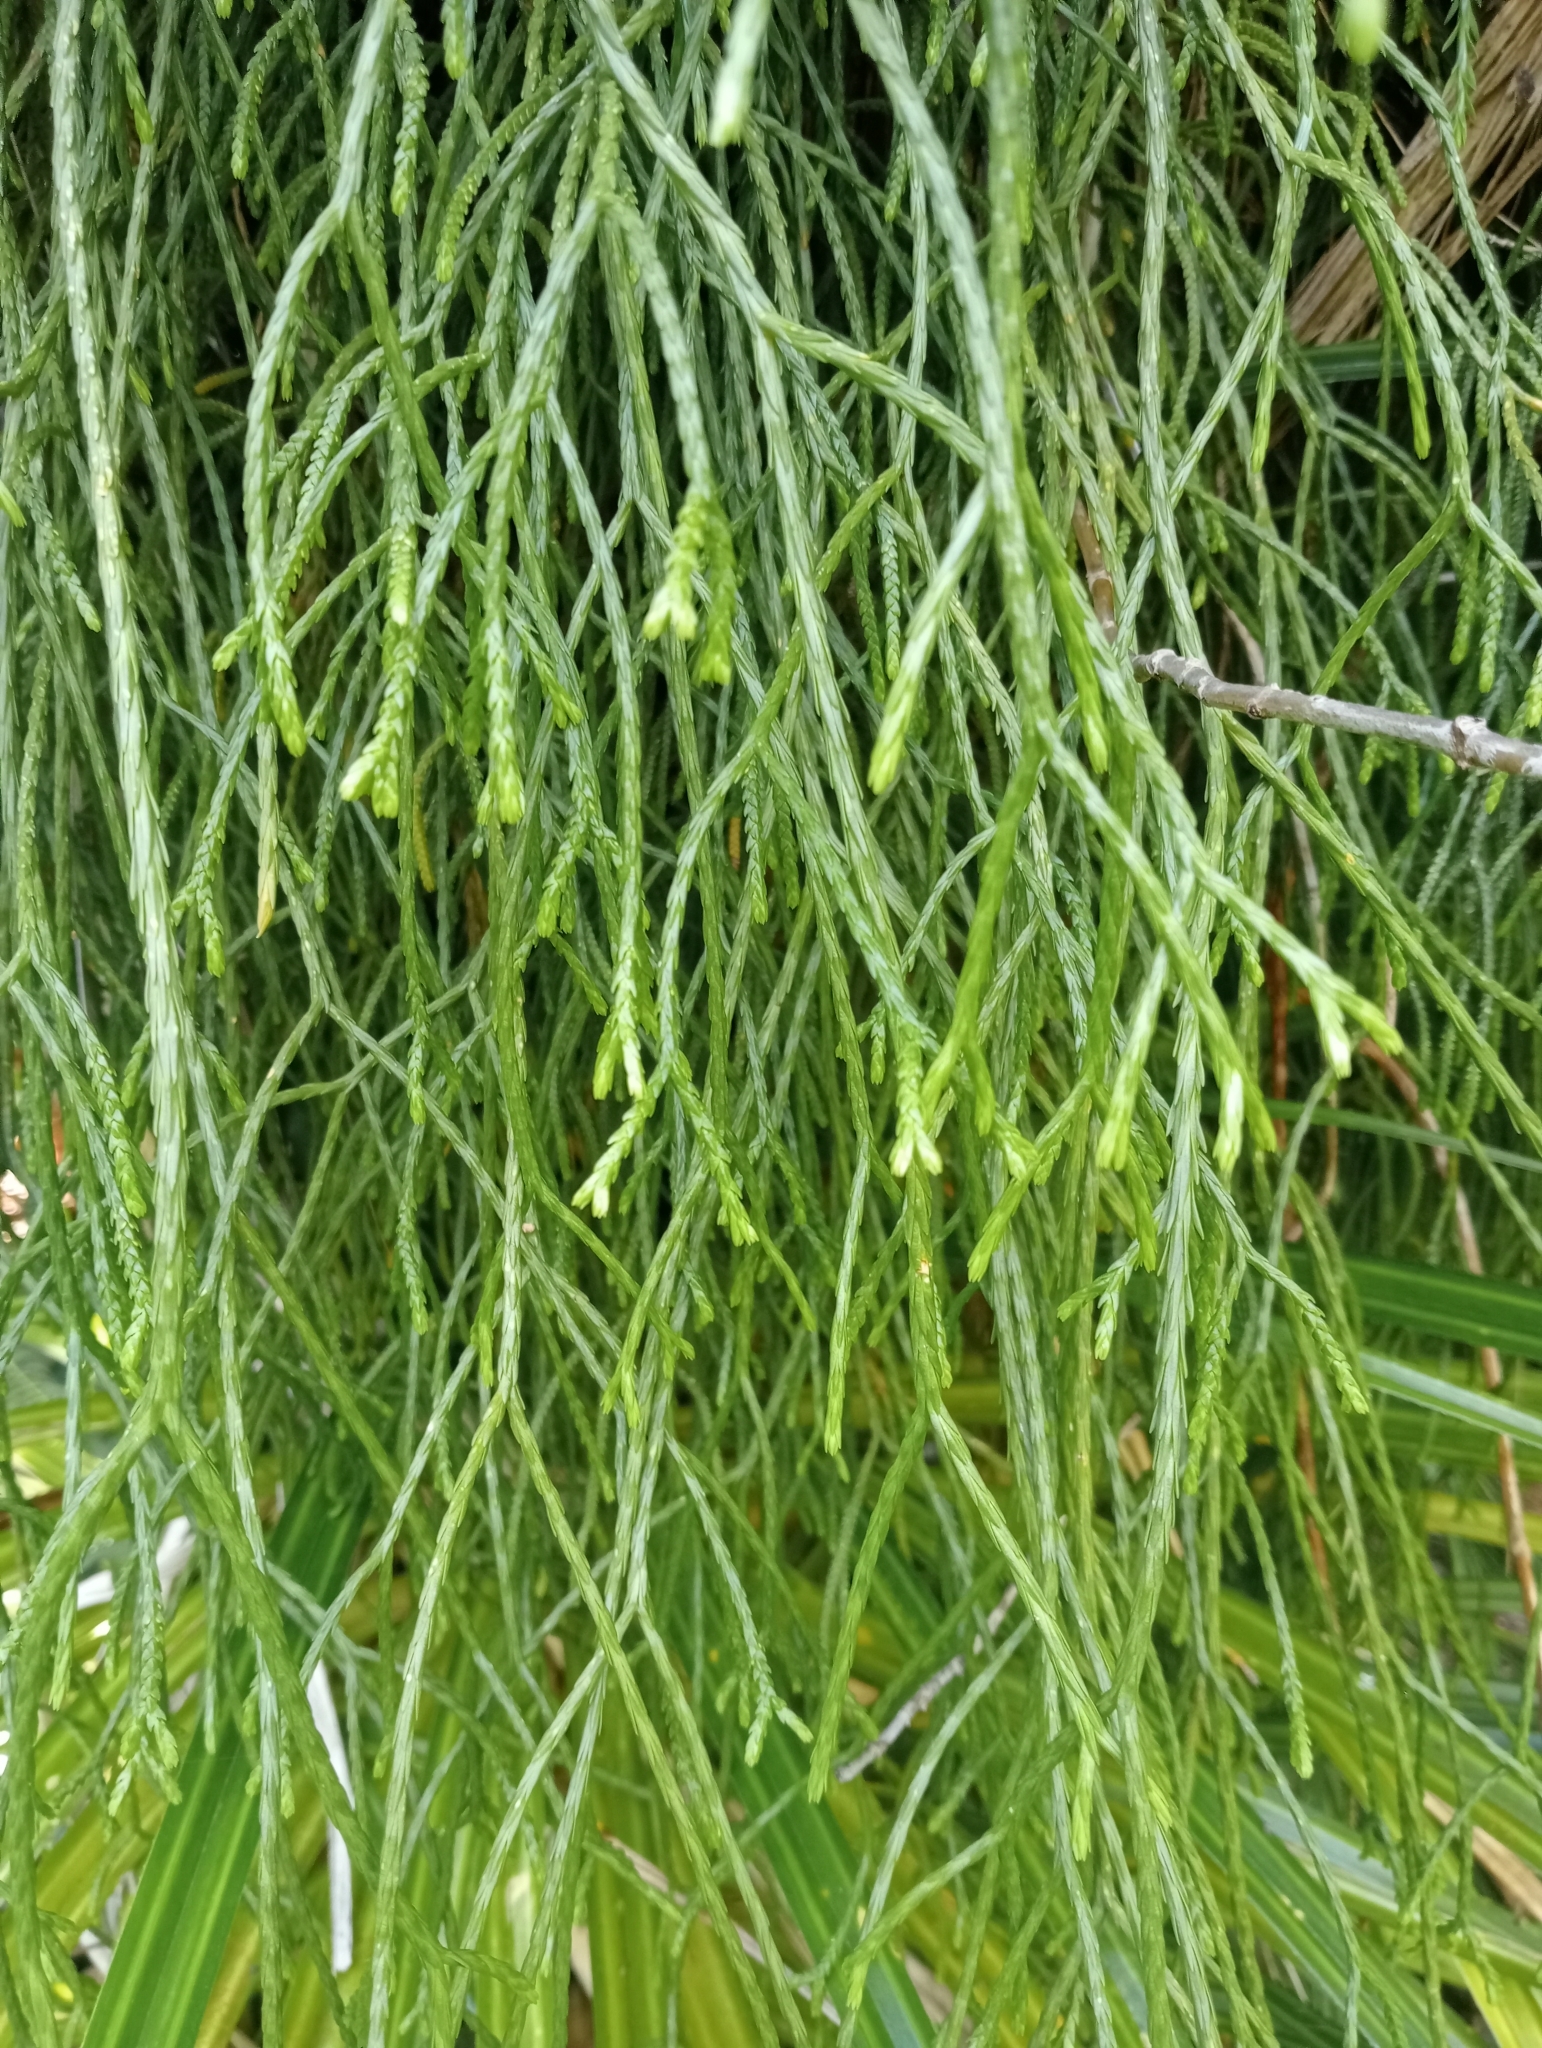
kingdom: Plantae
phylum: Tracheophyta
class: Lycopodiopsida
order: Lycopodiales
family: Lycopodiaceae
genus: Phlegmariurus
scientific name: Phlegmariurus billardierei
